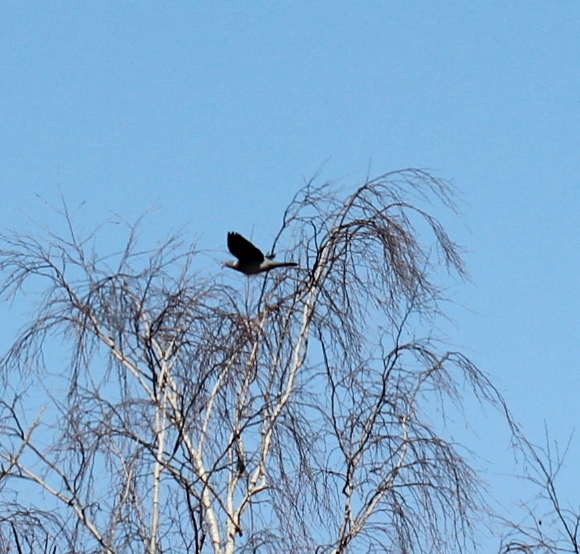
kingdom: Animalia
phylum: Chordata
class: Aves
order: Columbiformes
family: Columbidae
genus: Columba
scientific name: Columba palumbus
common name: Common wood pigeon
